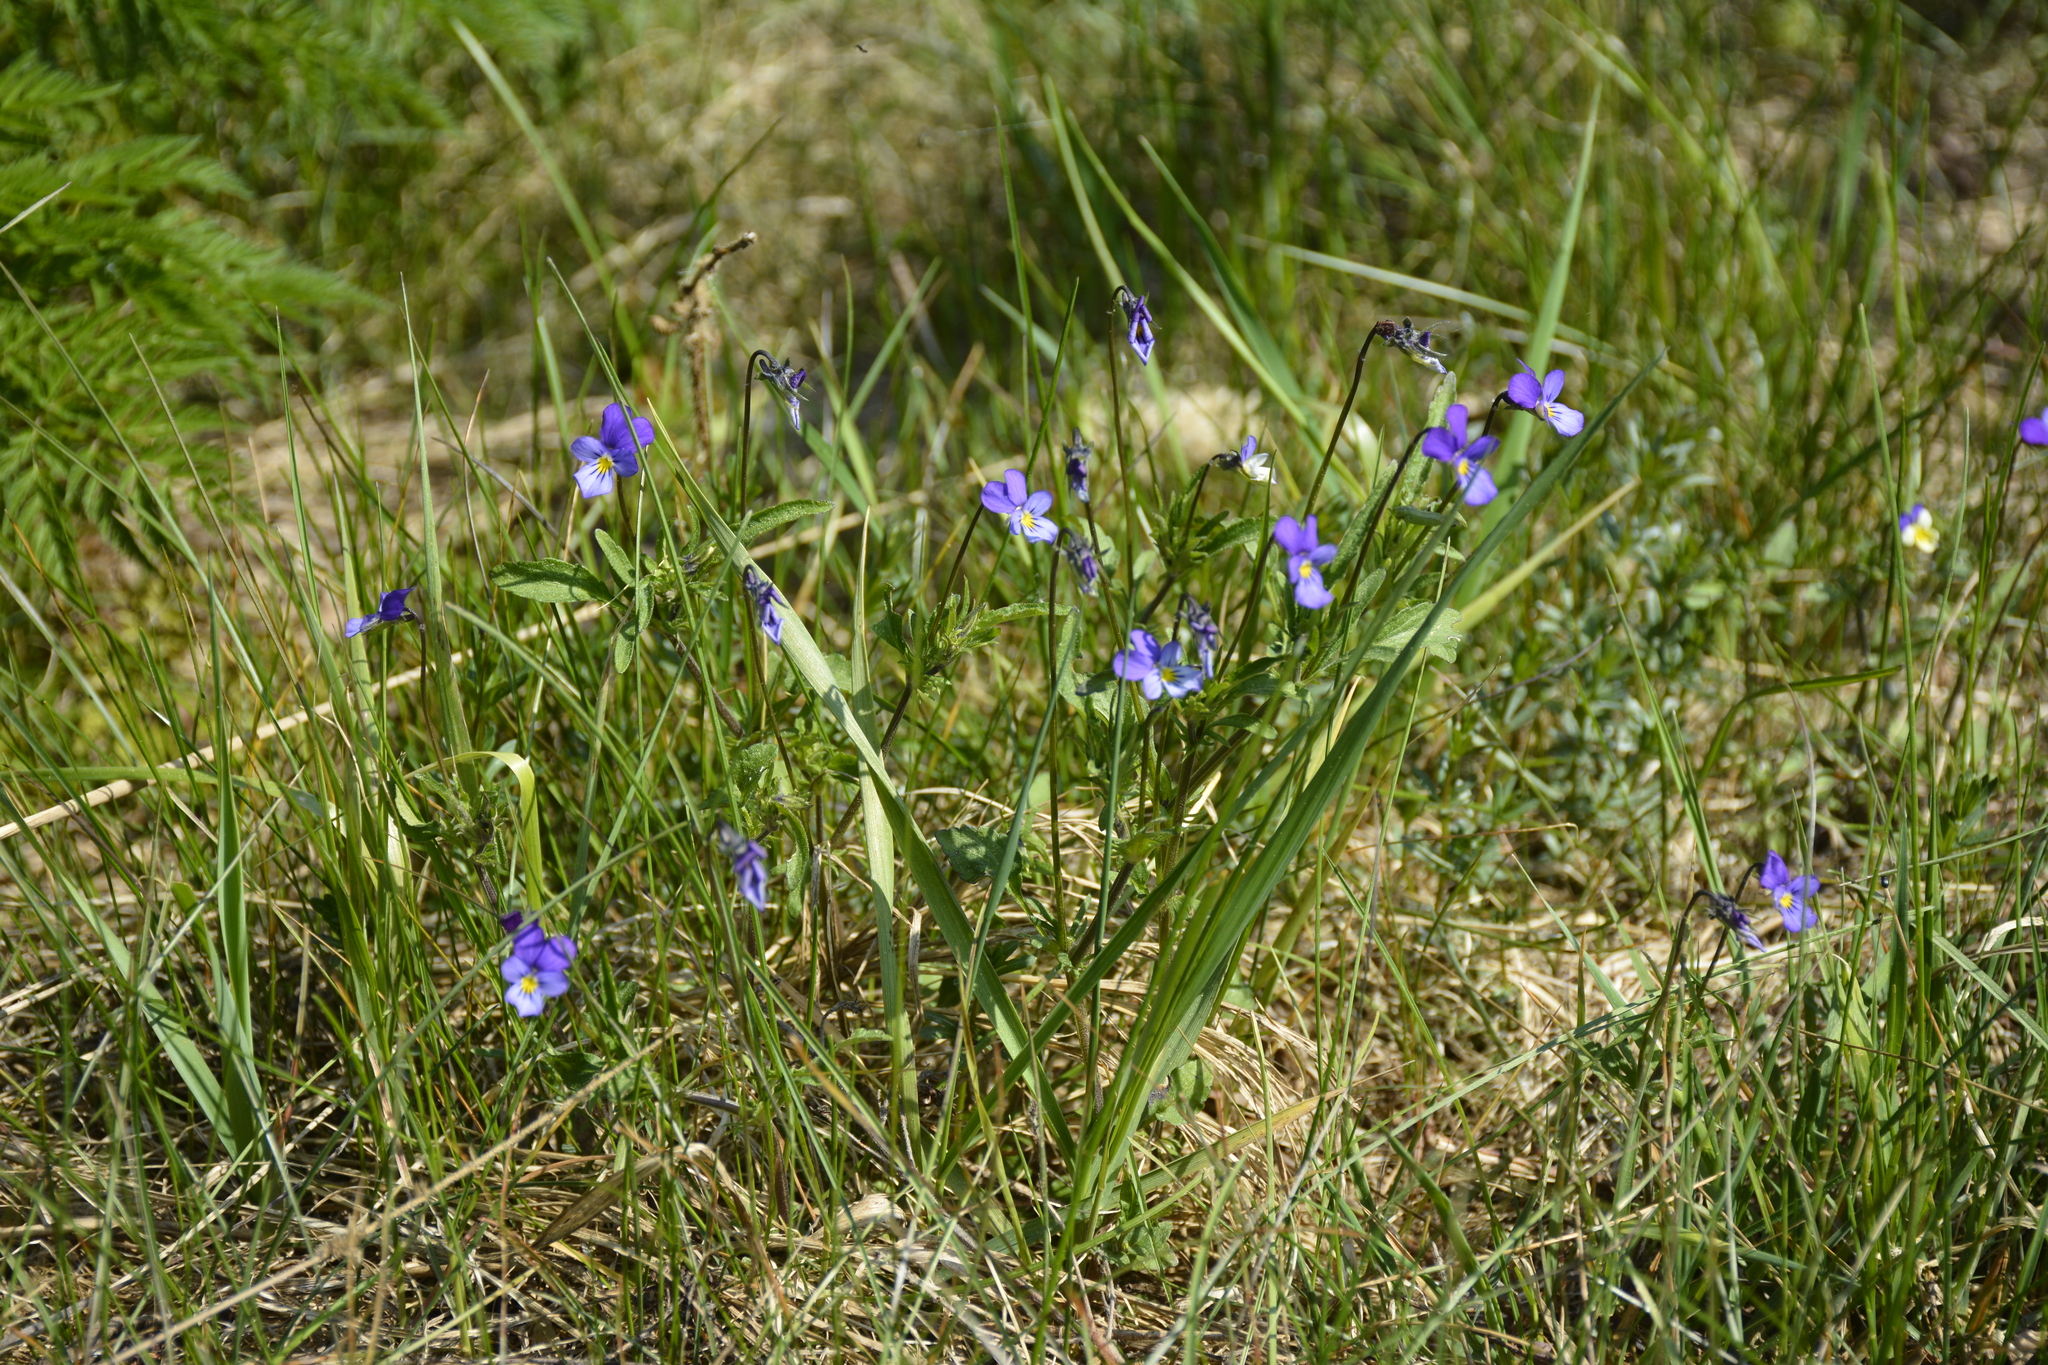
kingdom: Plantae
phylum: Tracheophyta
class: Magnoliopsida
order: Malpighiales
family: Violaceae
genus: Viola
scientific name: Viola tricolor
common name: Pansy
